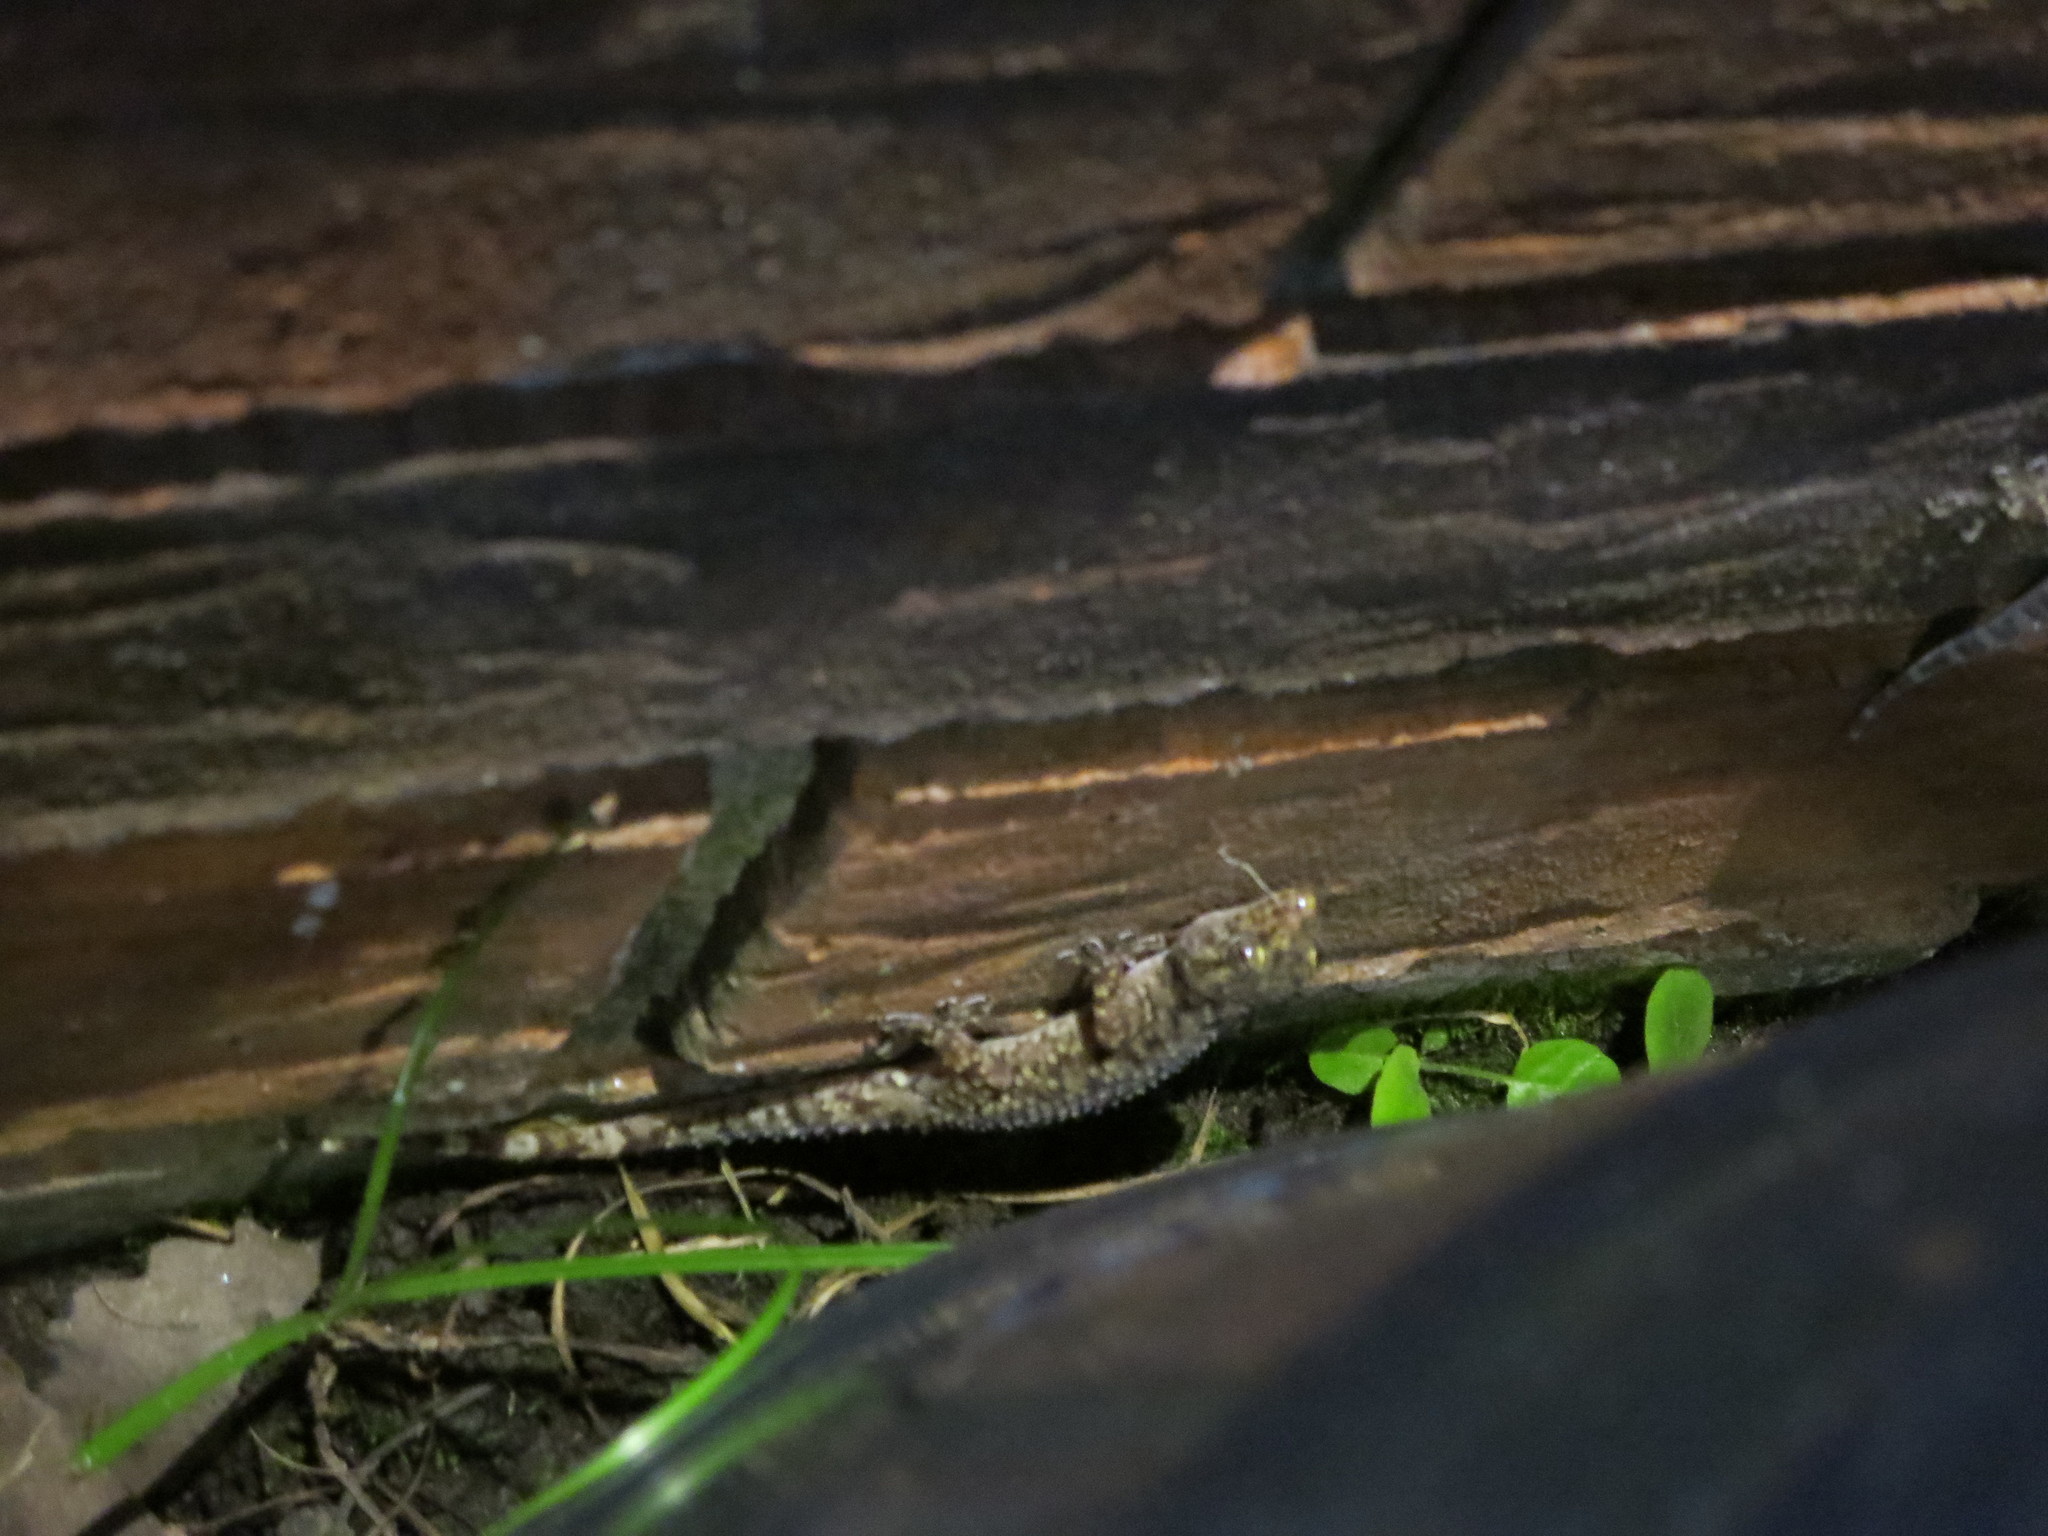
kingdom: Animalia
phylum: Chordata
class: Squamata
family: Gekkonidae
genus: Hemidactylus
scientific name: Hemidactylus turcicus
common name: Turkish gecko
